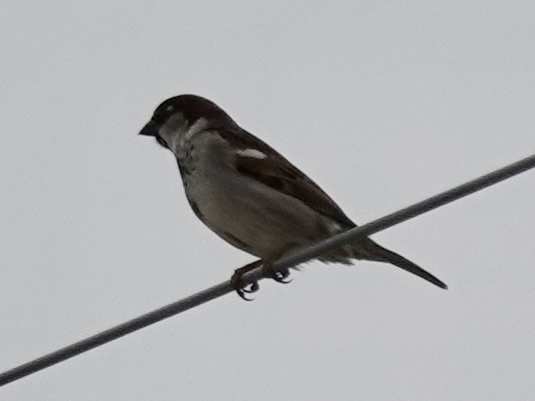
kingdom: Animalia
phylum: Chordata
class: Aves
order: Passeriformes
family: Passeridae
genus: Passer
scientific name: Passer domesticus
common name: House sparrow
